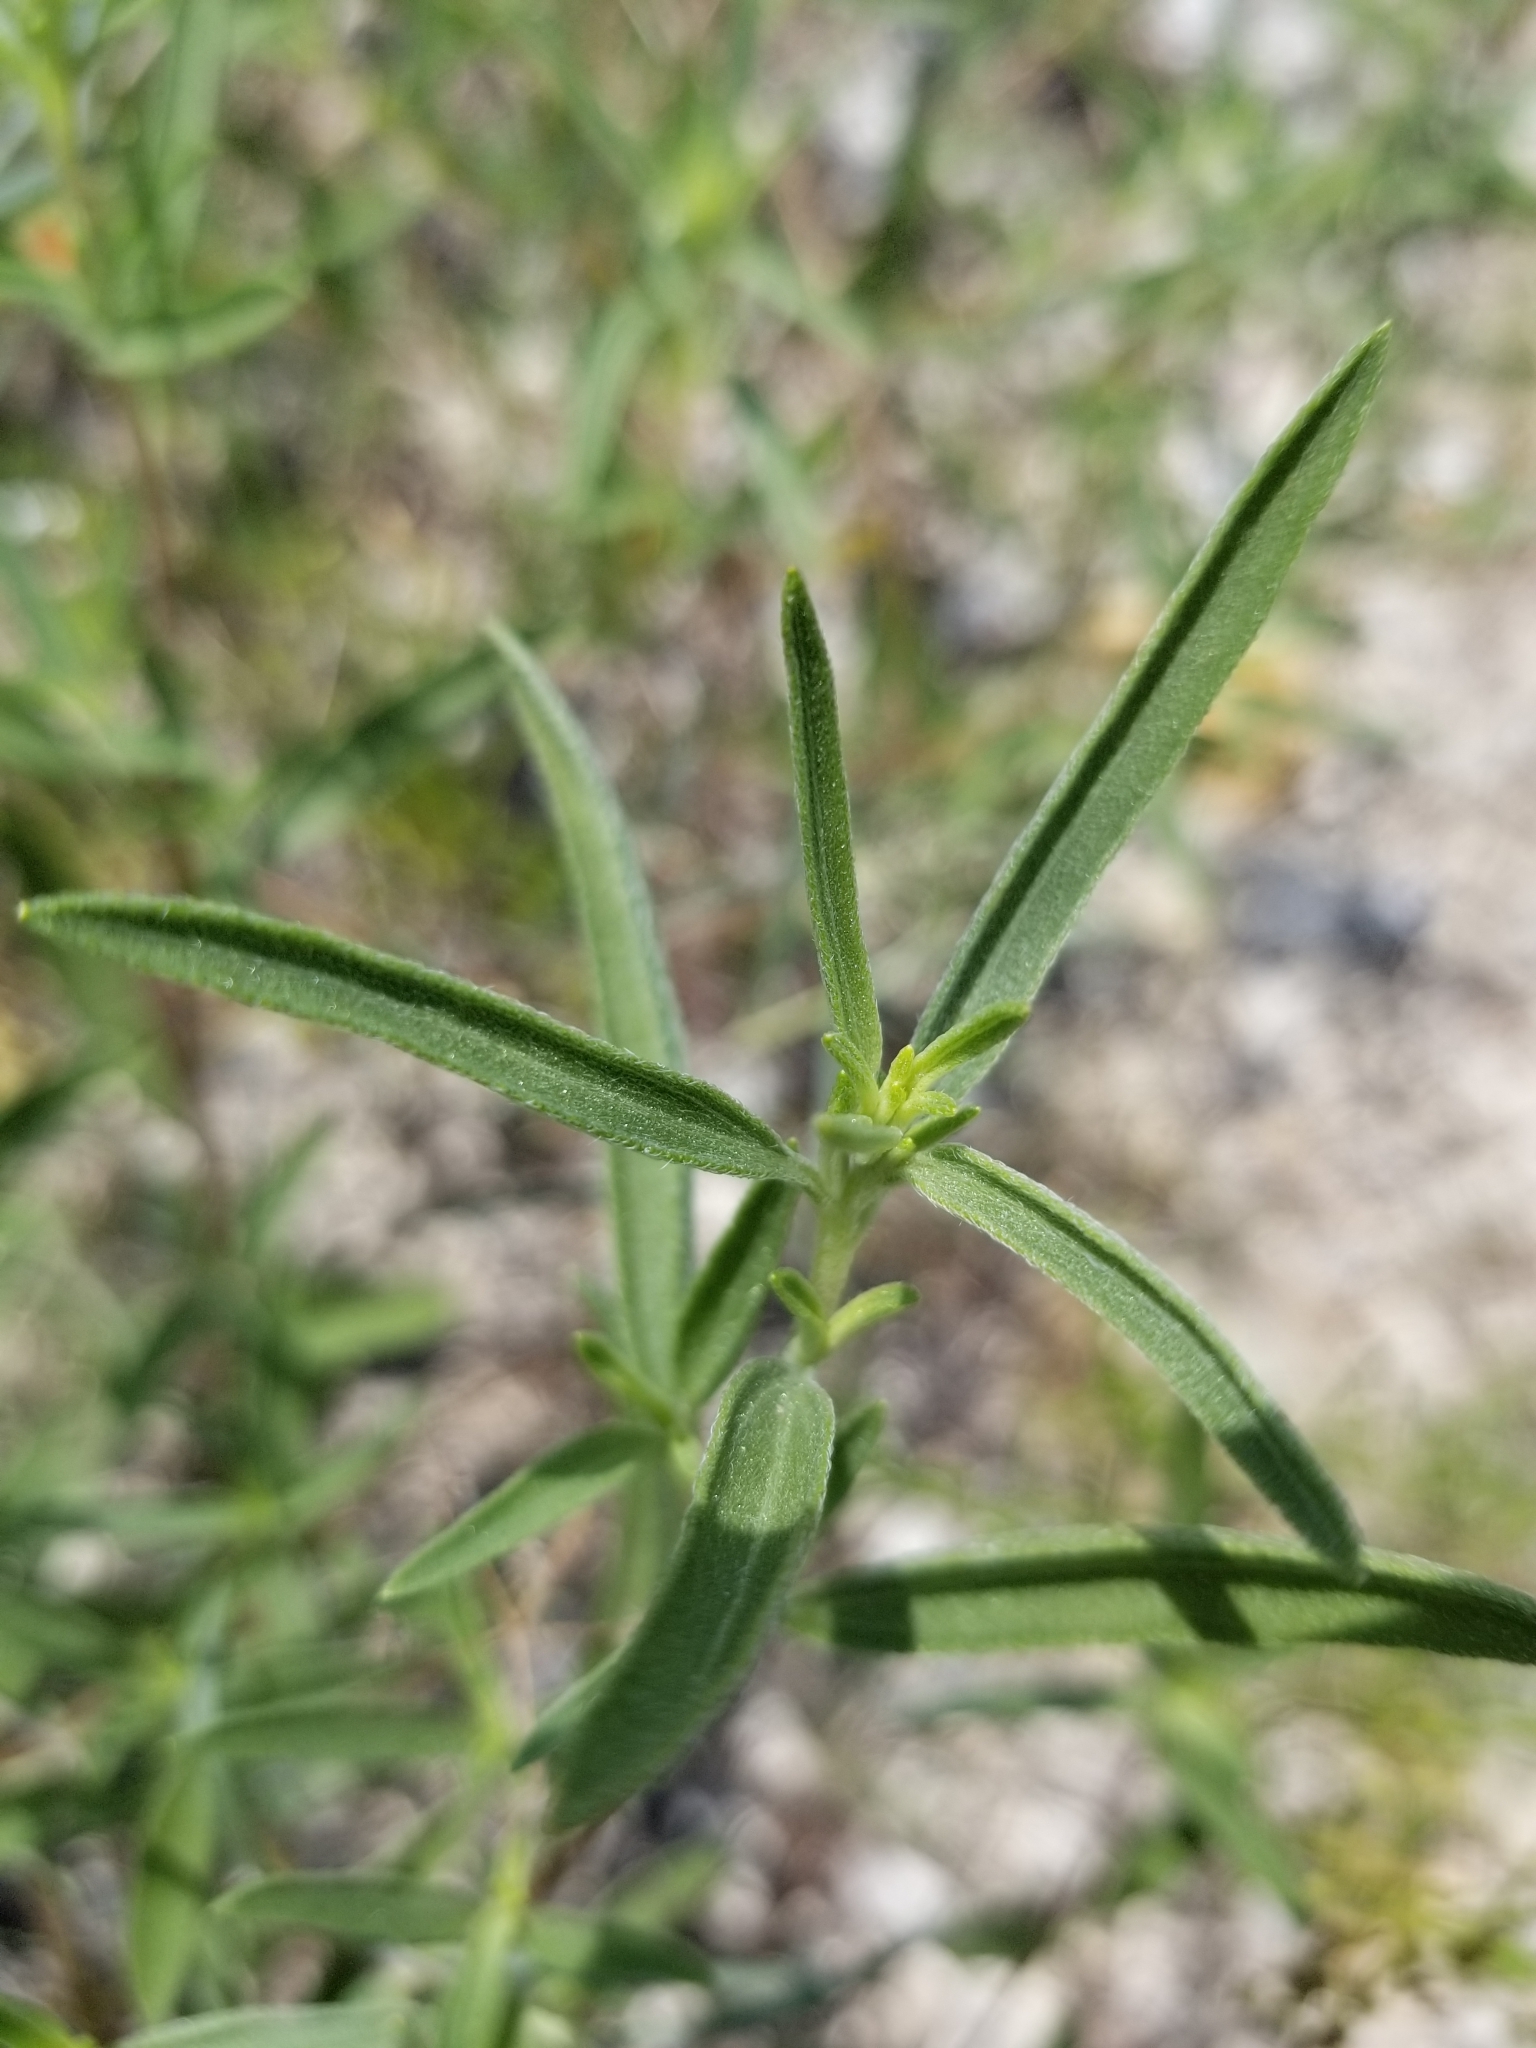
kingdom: Plantae
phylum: Tracheophyta
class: Magnoliopsida
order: Asterales
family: Asteraceae
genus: Palafoxia
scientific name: Palafoxia callosa
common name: Small palafox
